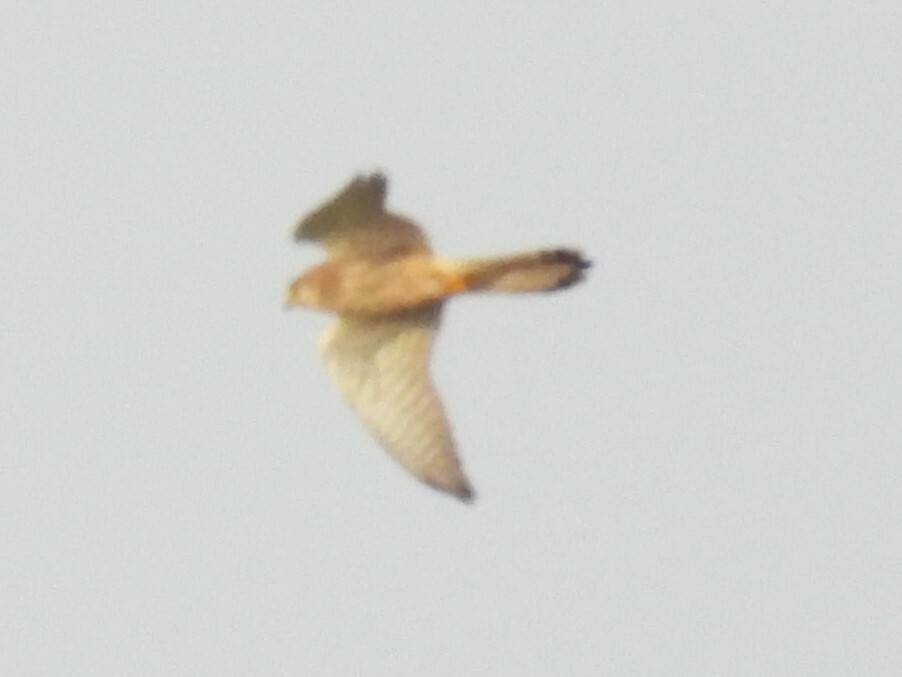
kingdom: Animalia
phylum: Chordata
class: Aves
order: Falconiformes
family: Falconidae
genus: Falco
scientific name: Falco tinnunculus
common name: Common kestrel
